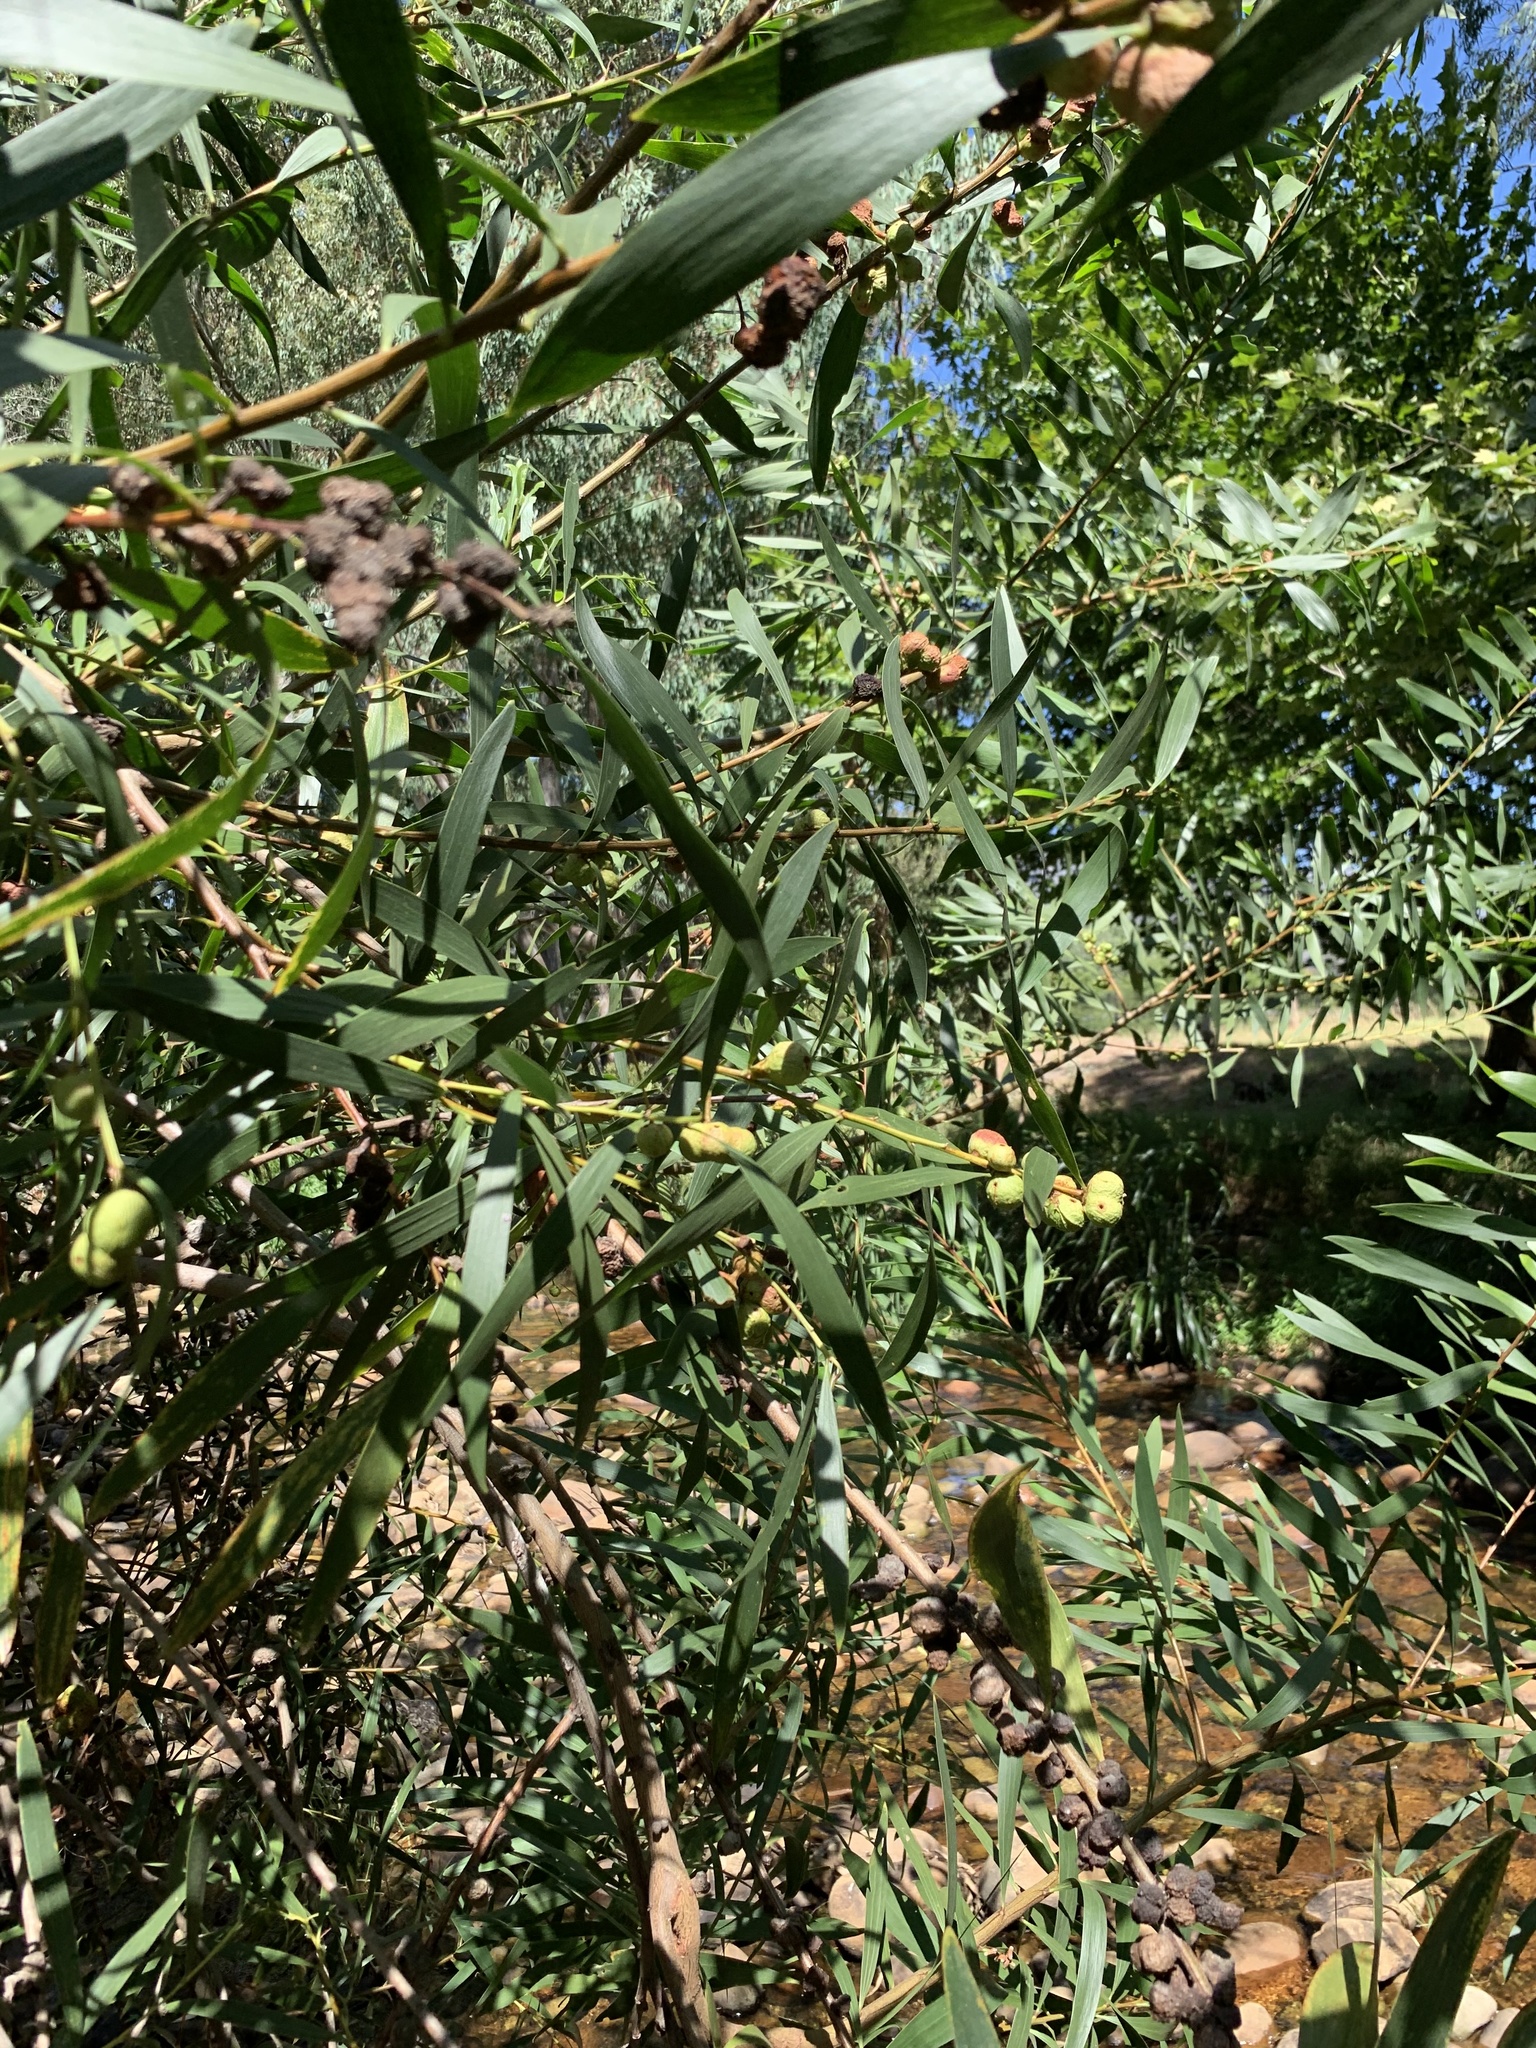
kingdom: Plantae
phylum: Tracheophyta
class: Magnoliopsida
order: Fabales
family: Fabaceae
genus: Acacia
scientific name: Acacia longifolia
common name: Sydney golden wattle
